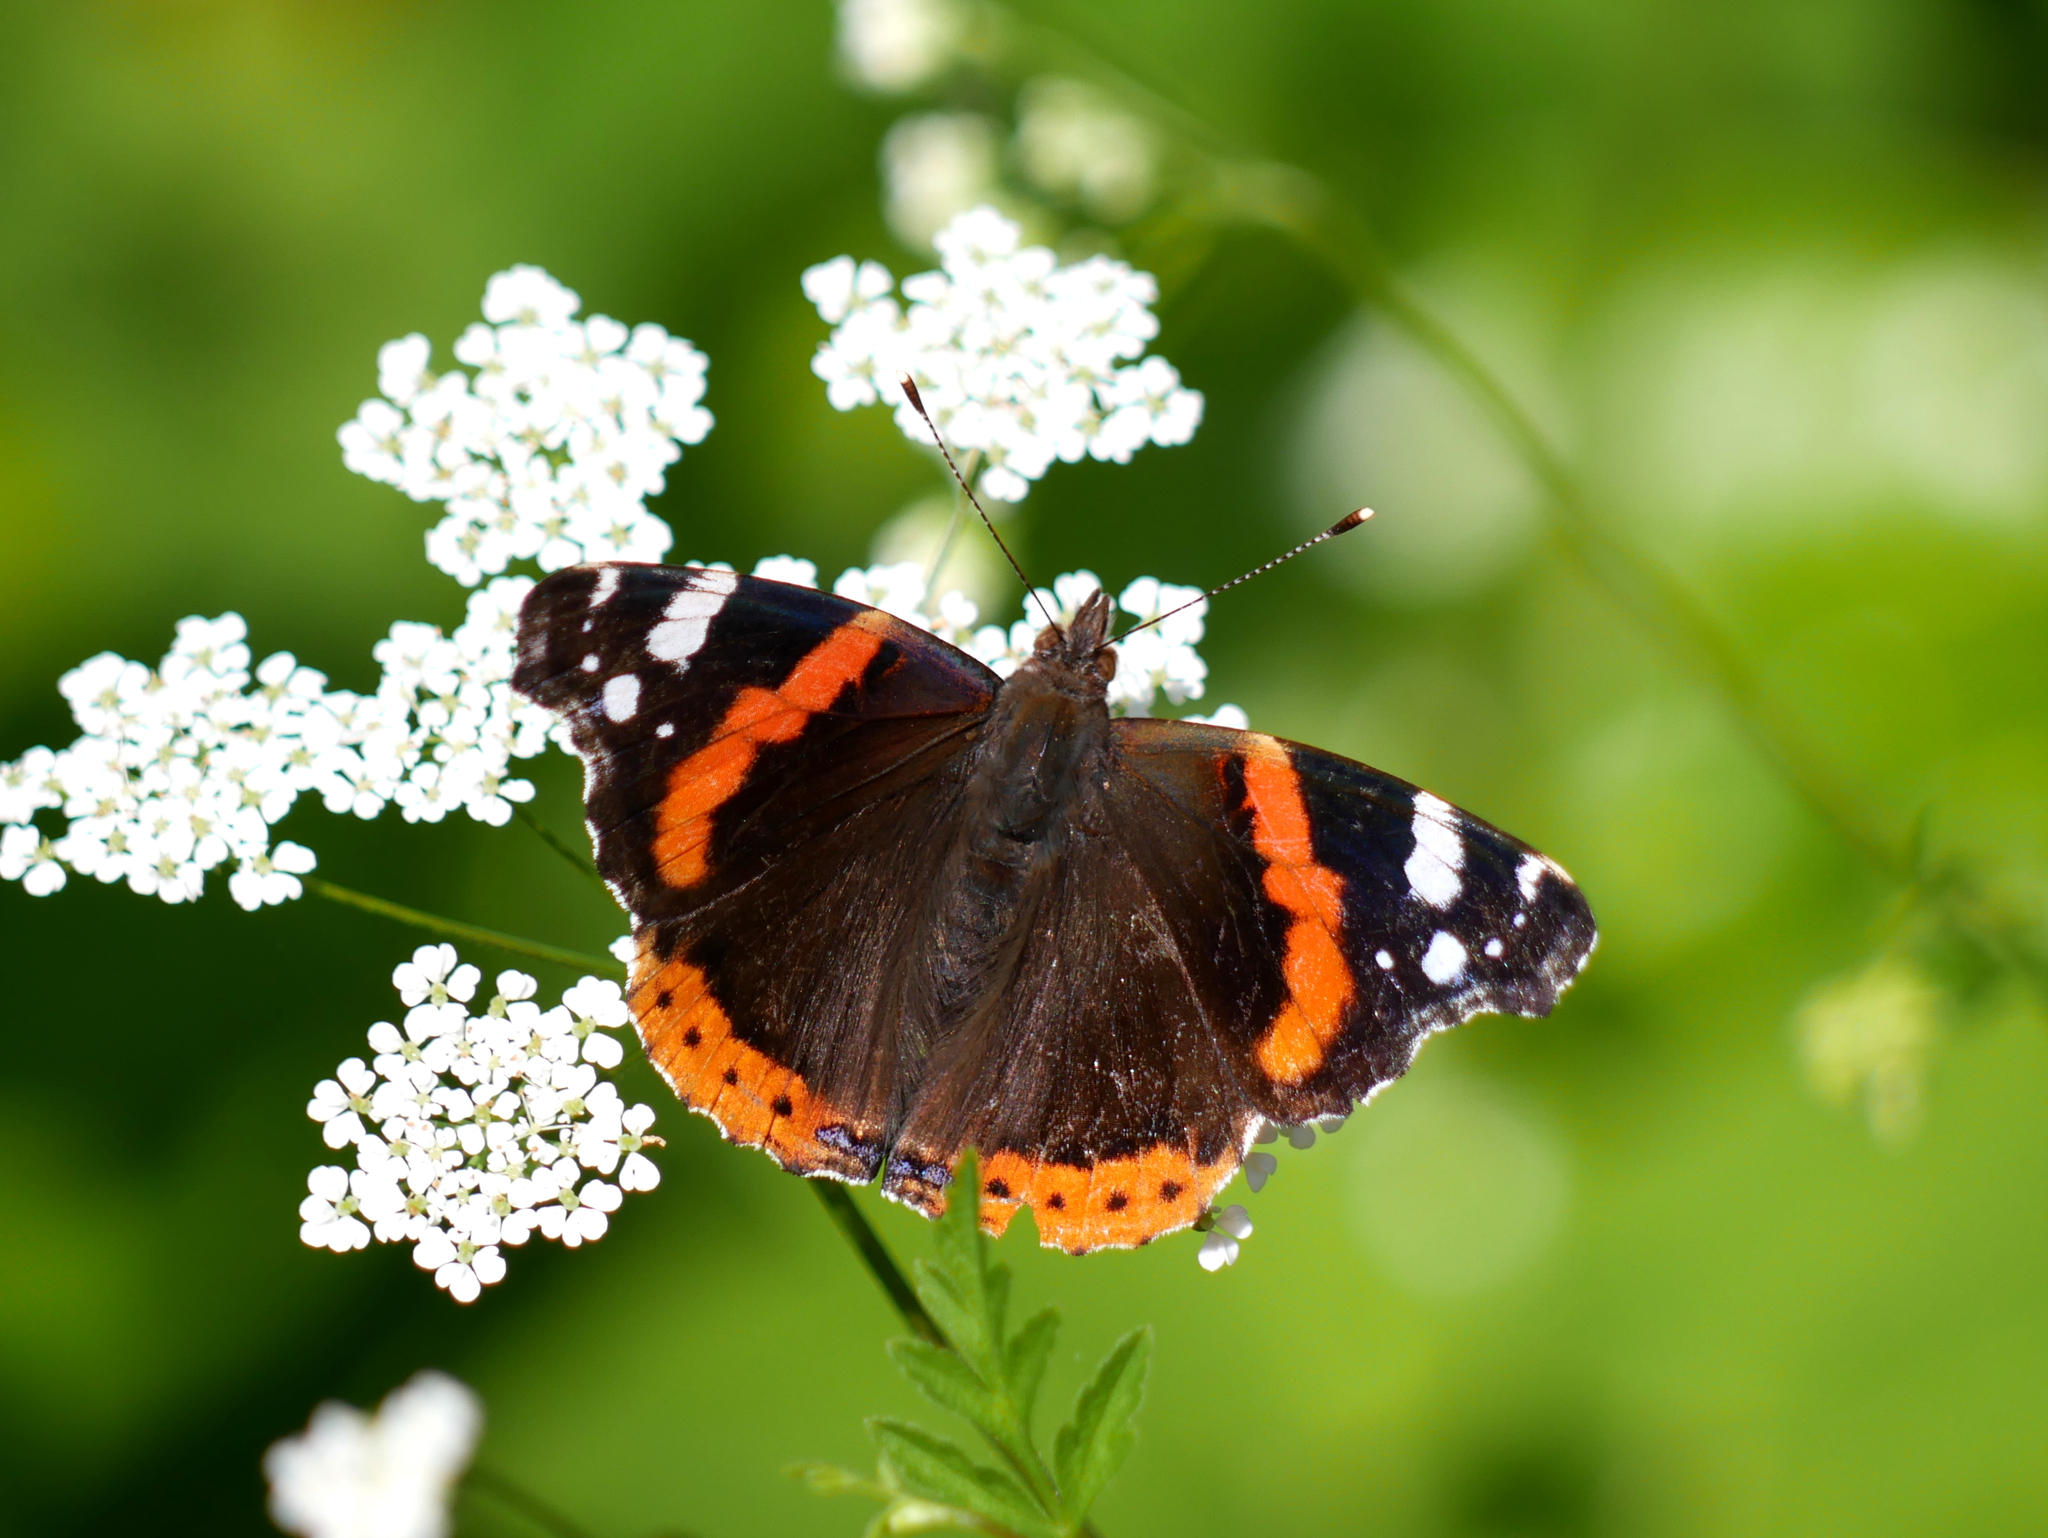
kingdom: Animalia
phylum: Arthropoda
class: Insecta
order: Lepidoptera
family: Nymphalidae
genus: Vanessa
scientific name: Vanessa atalanta
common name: Red admiral
